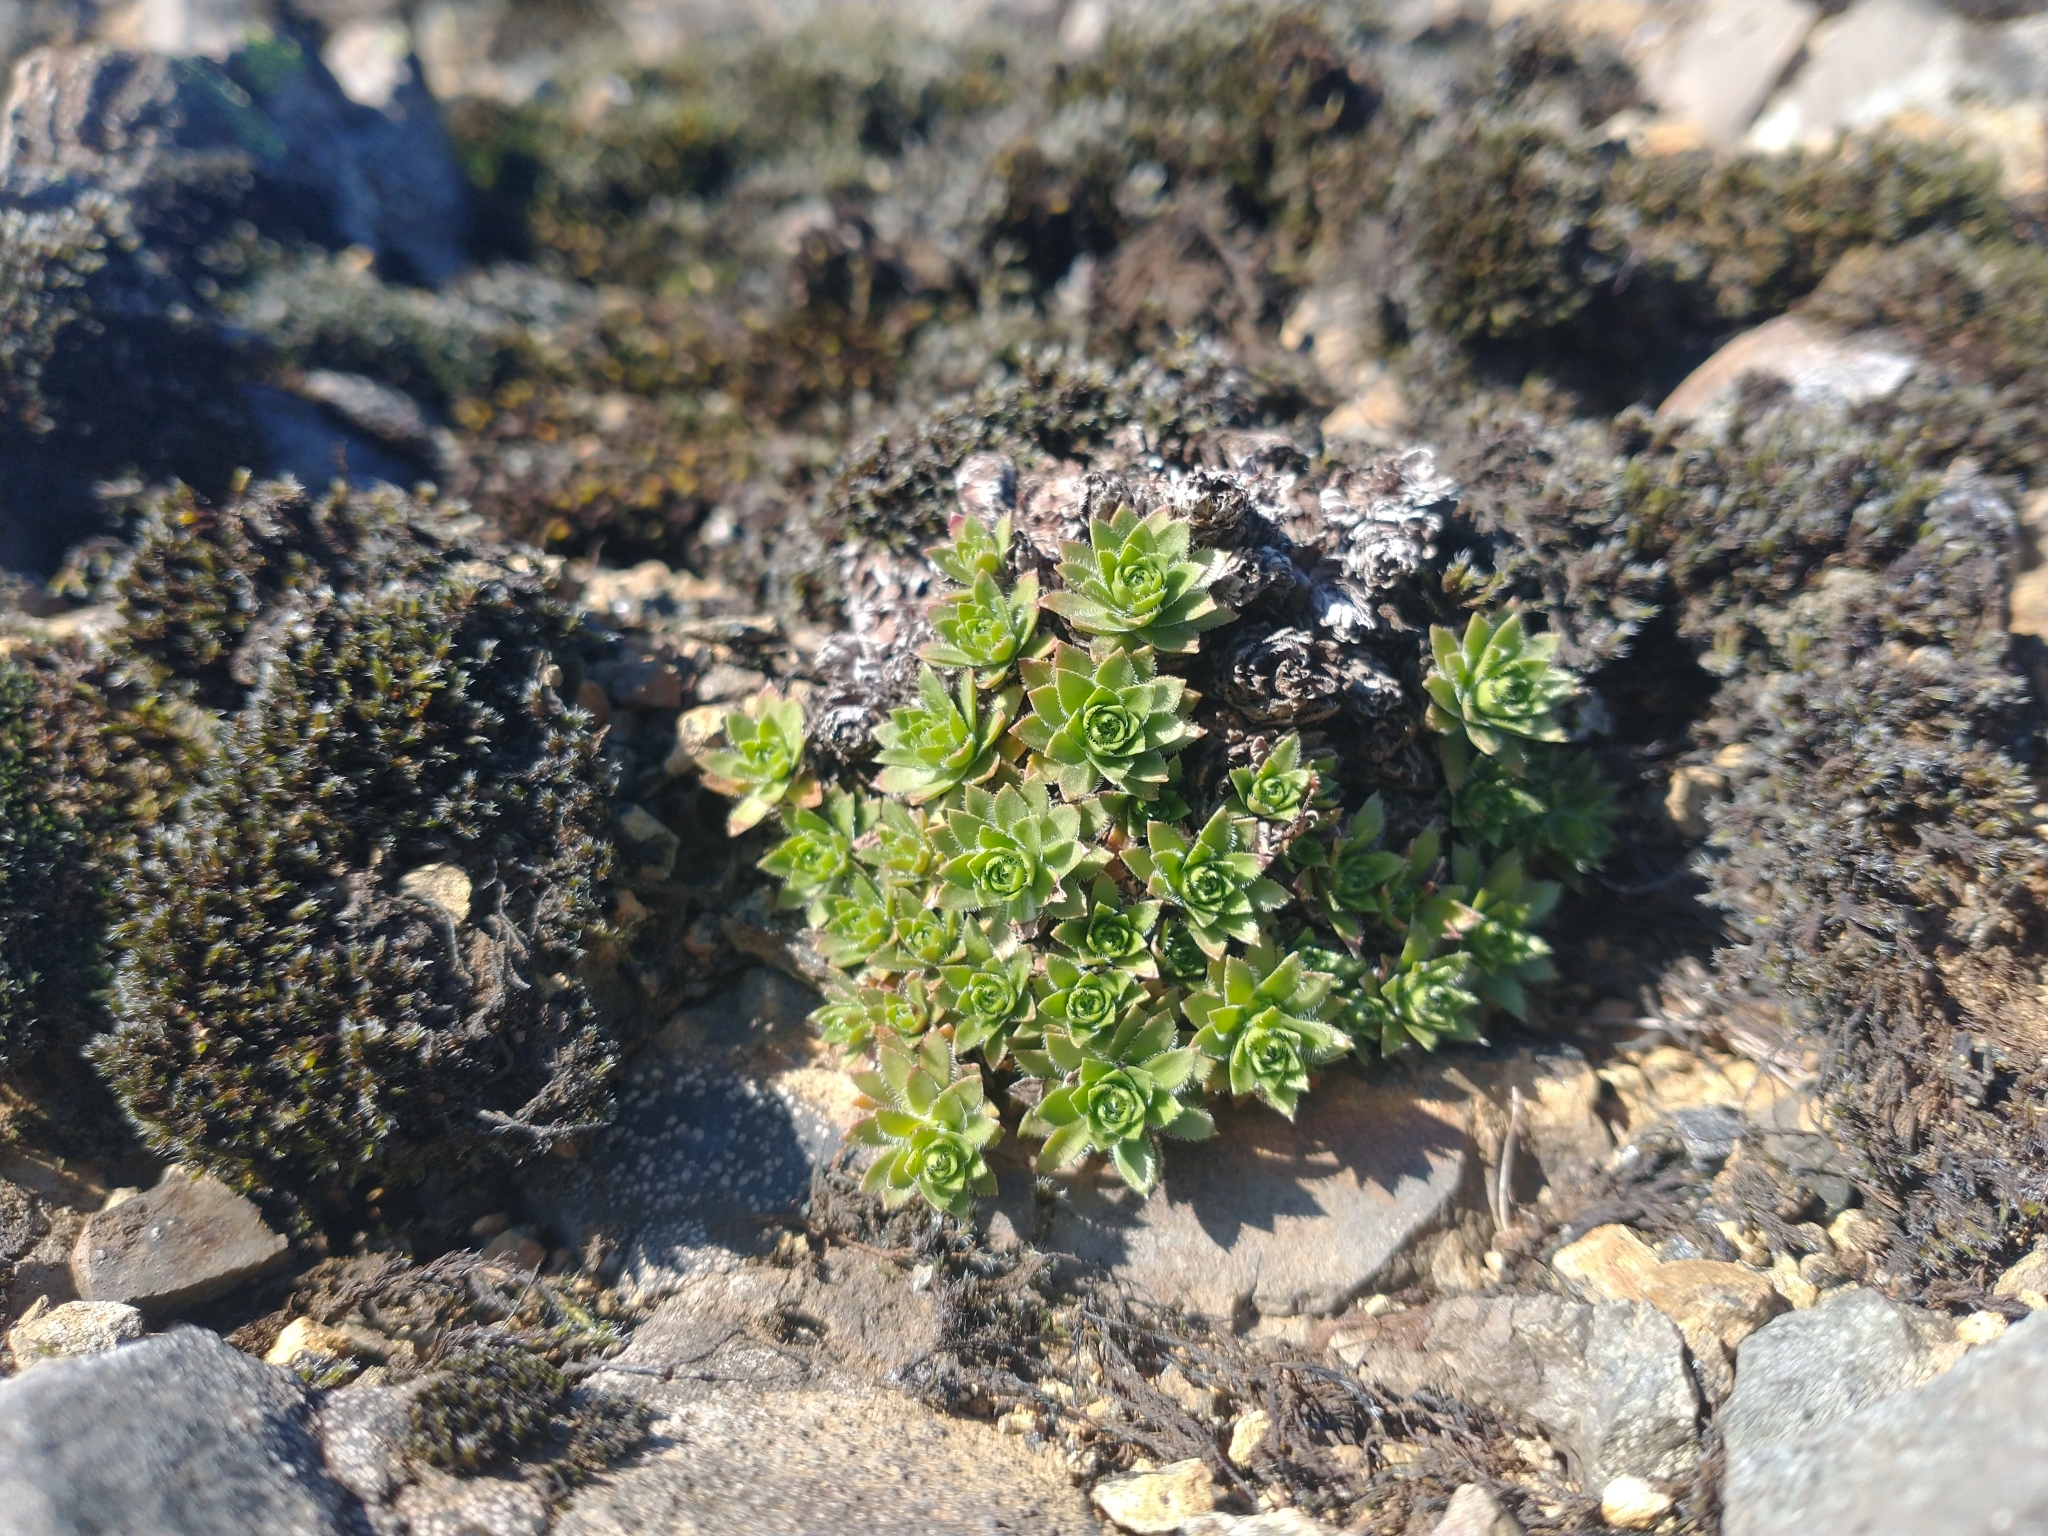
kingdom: Plantae
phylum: Tracheophyta
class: Magnoliopsida
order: Saxifragales
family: Saxifragaceae
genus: Saxifraga
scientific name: Saxifraga bronchialis
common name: Matted saxifrage
